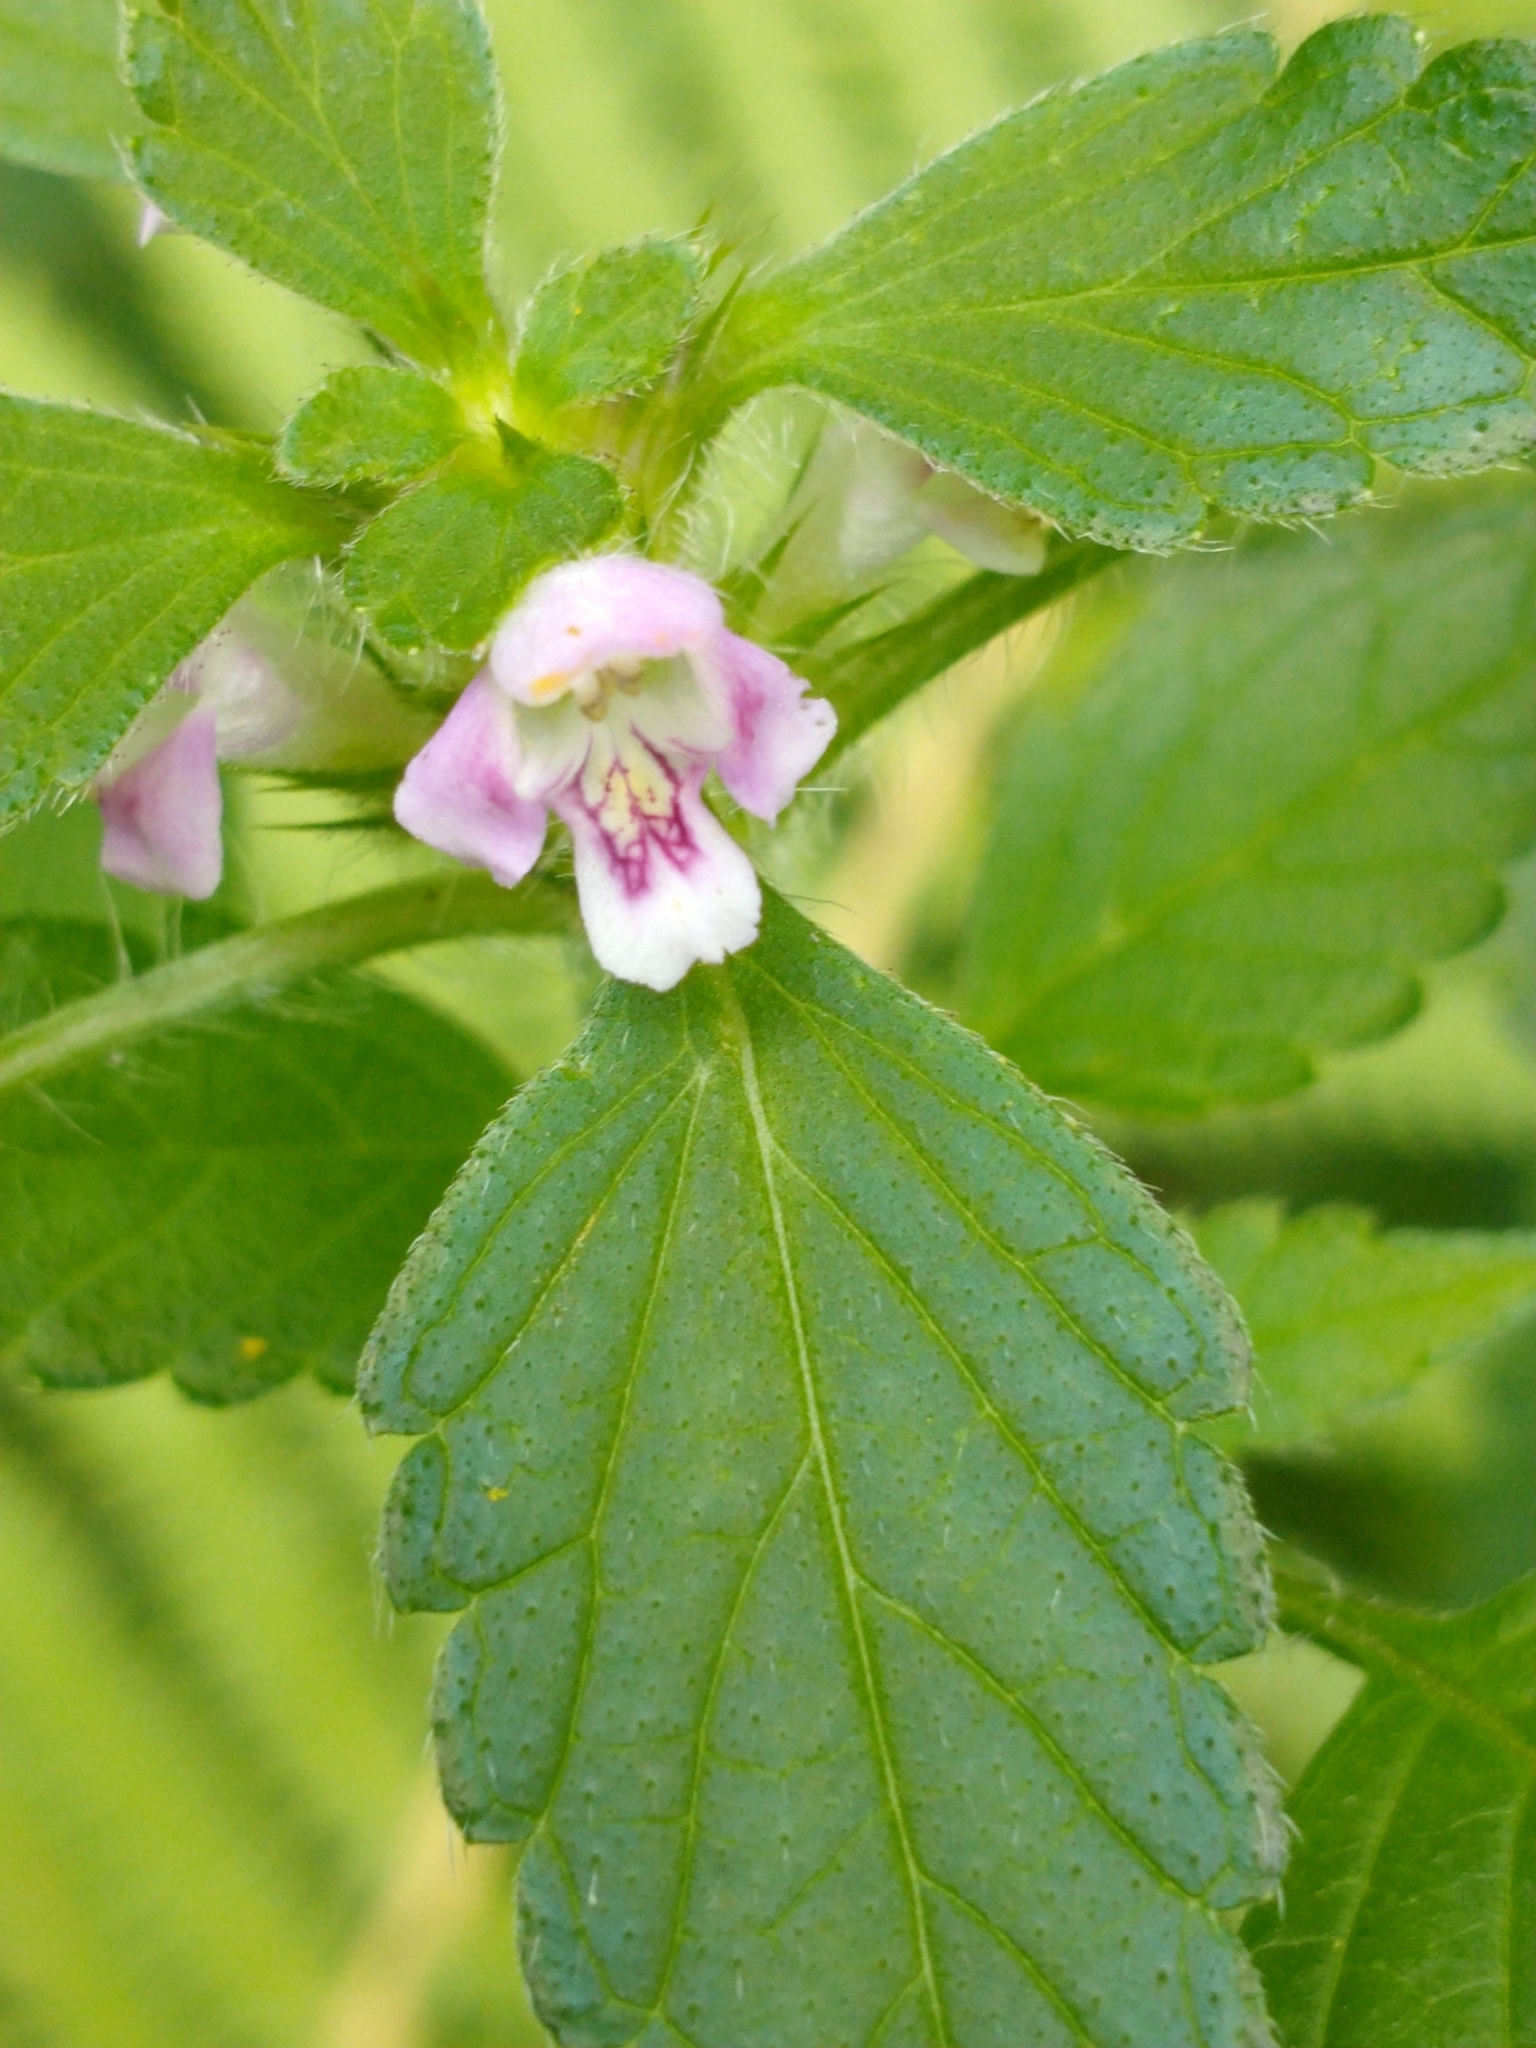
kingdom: Plantae
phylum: Tracheophyta
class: Magnoliopsida
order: Lamiales
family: Lamiaceae
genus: Galeopsis
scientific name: Galeopsis bifida
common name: Bifid hemp-nettle
